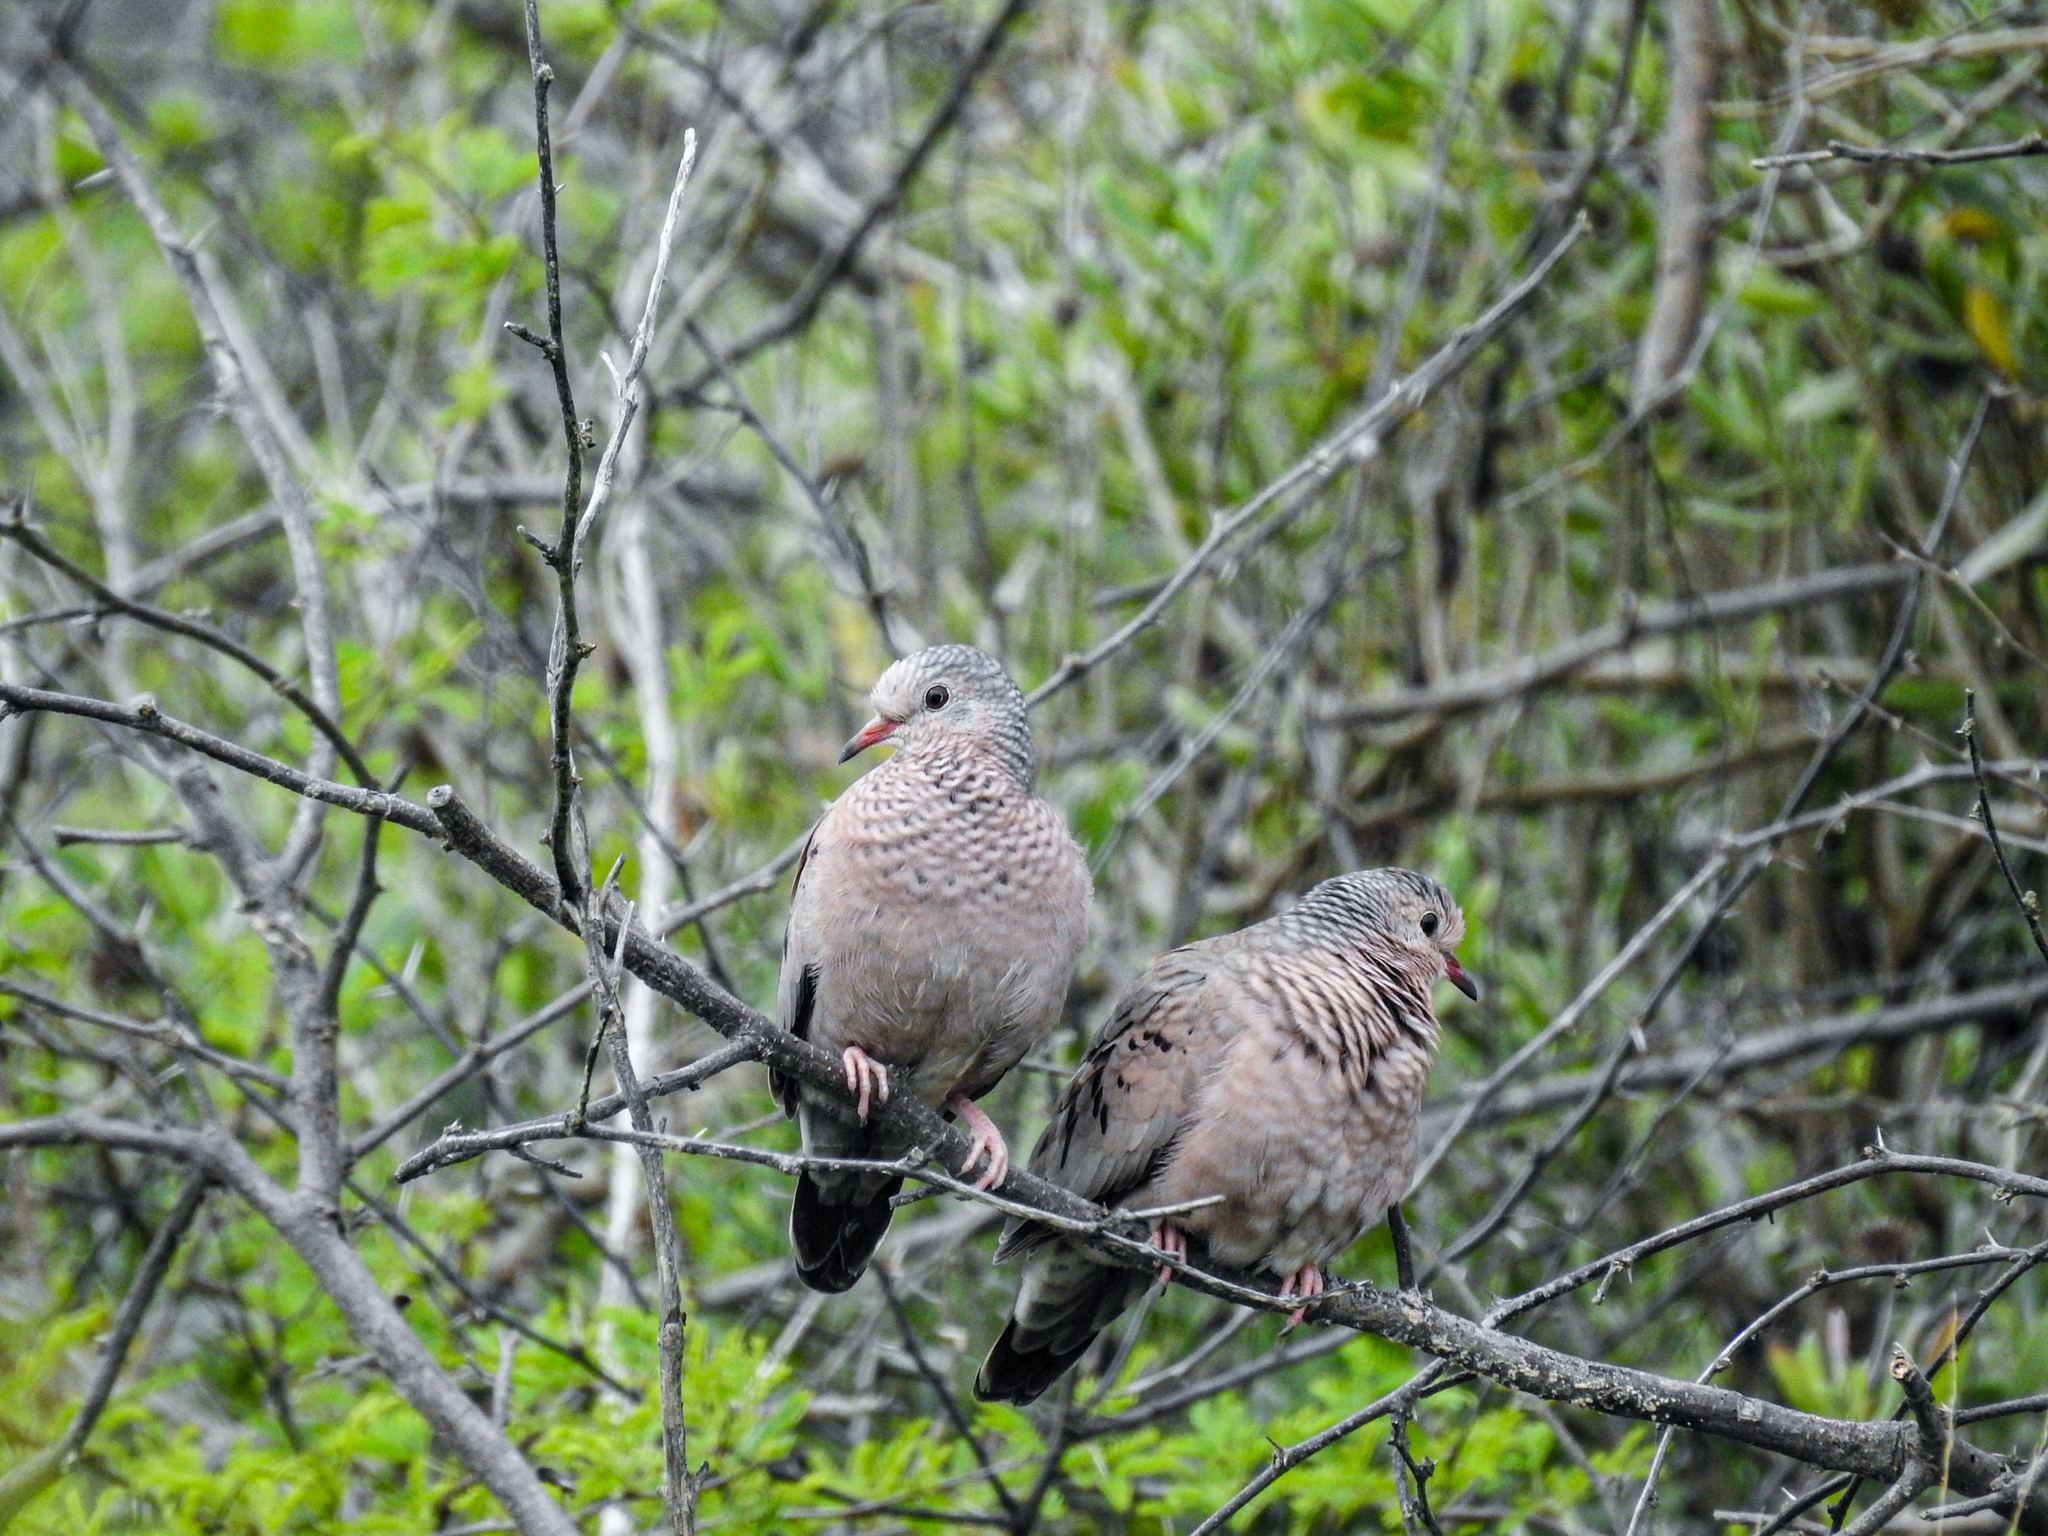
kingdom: Animalia
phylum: Chordata
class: Aves
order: Columbiformes
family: Columbidae
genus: Columbina
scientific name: Columbina passerina
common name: Common ground-dove
